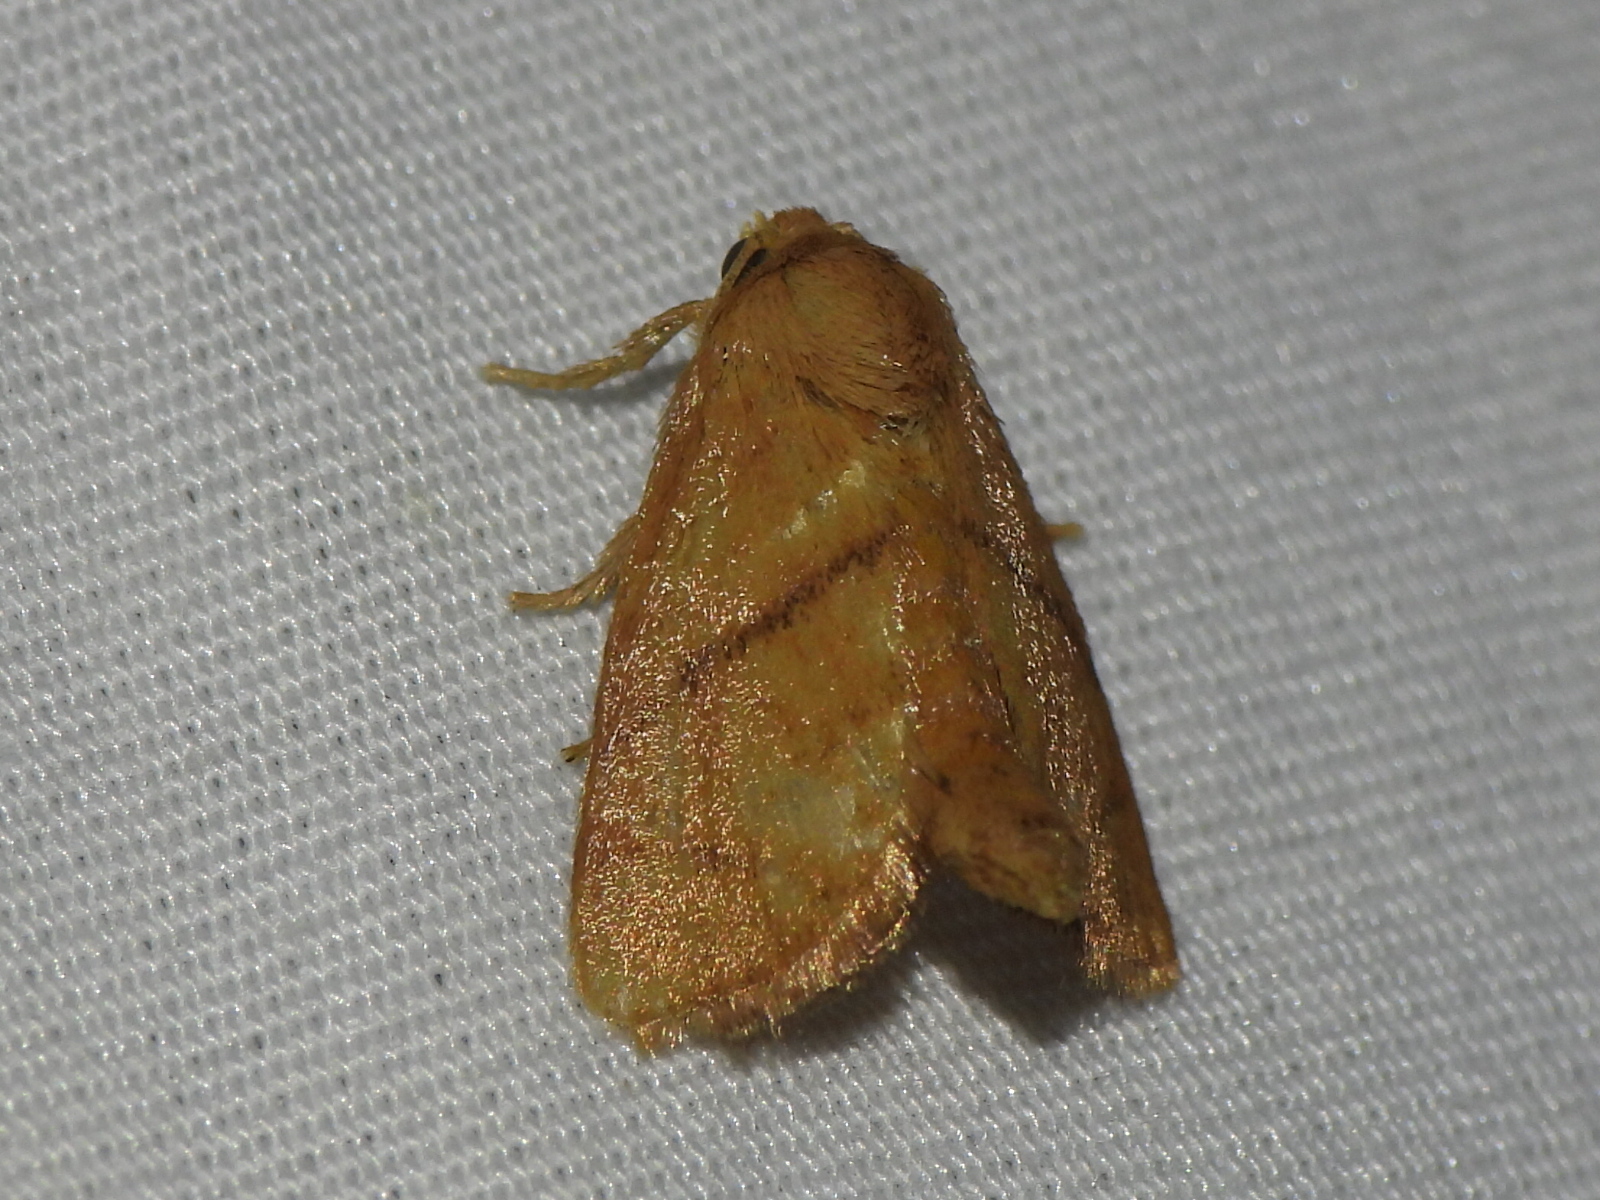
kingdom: Animalia
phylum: Arthropoda
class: Insecta
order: Lepidoptera
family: Limacodidae
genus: Apoda
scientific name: Apoda y-inversa
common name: Yellow-collared slug moth
